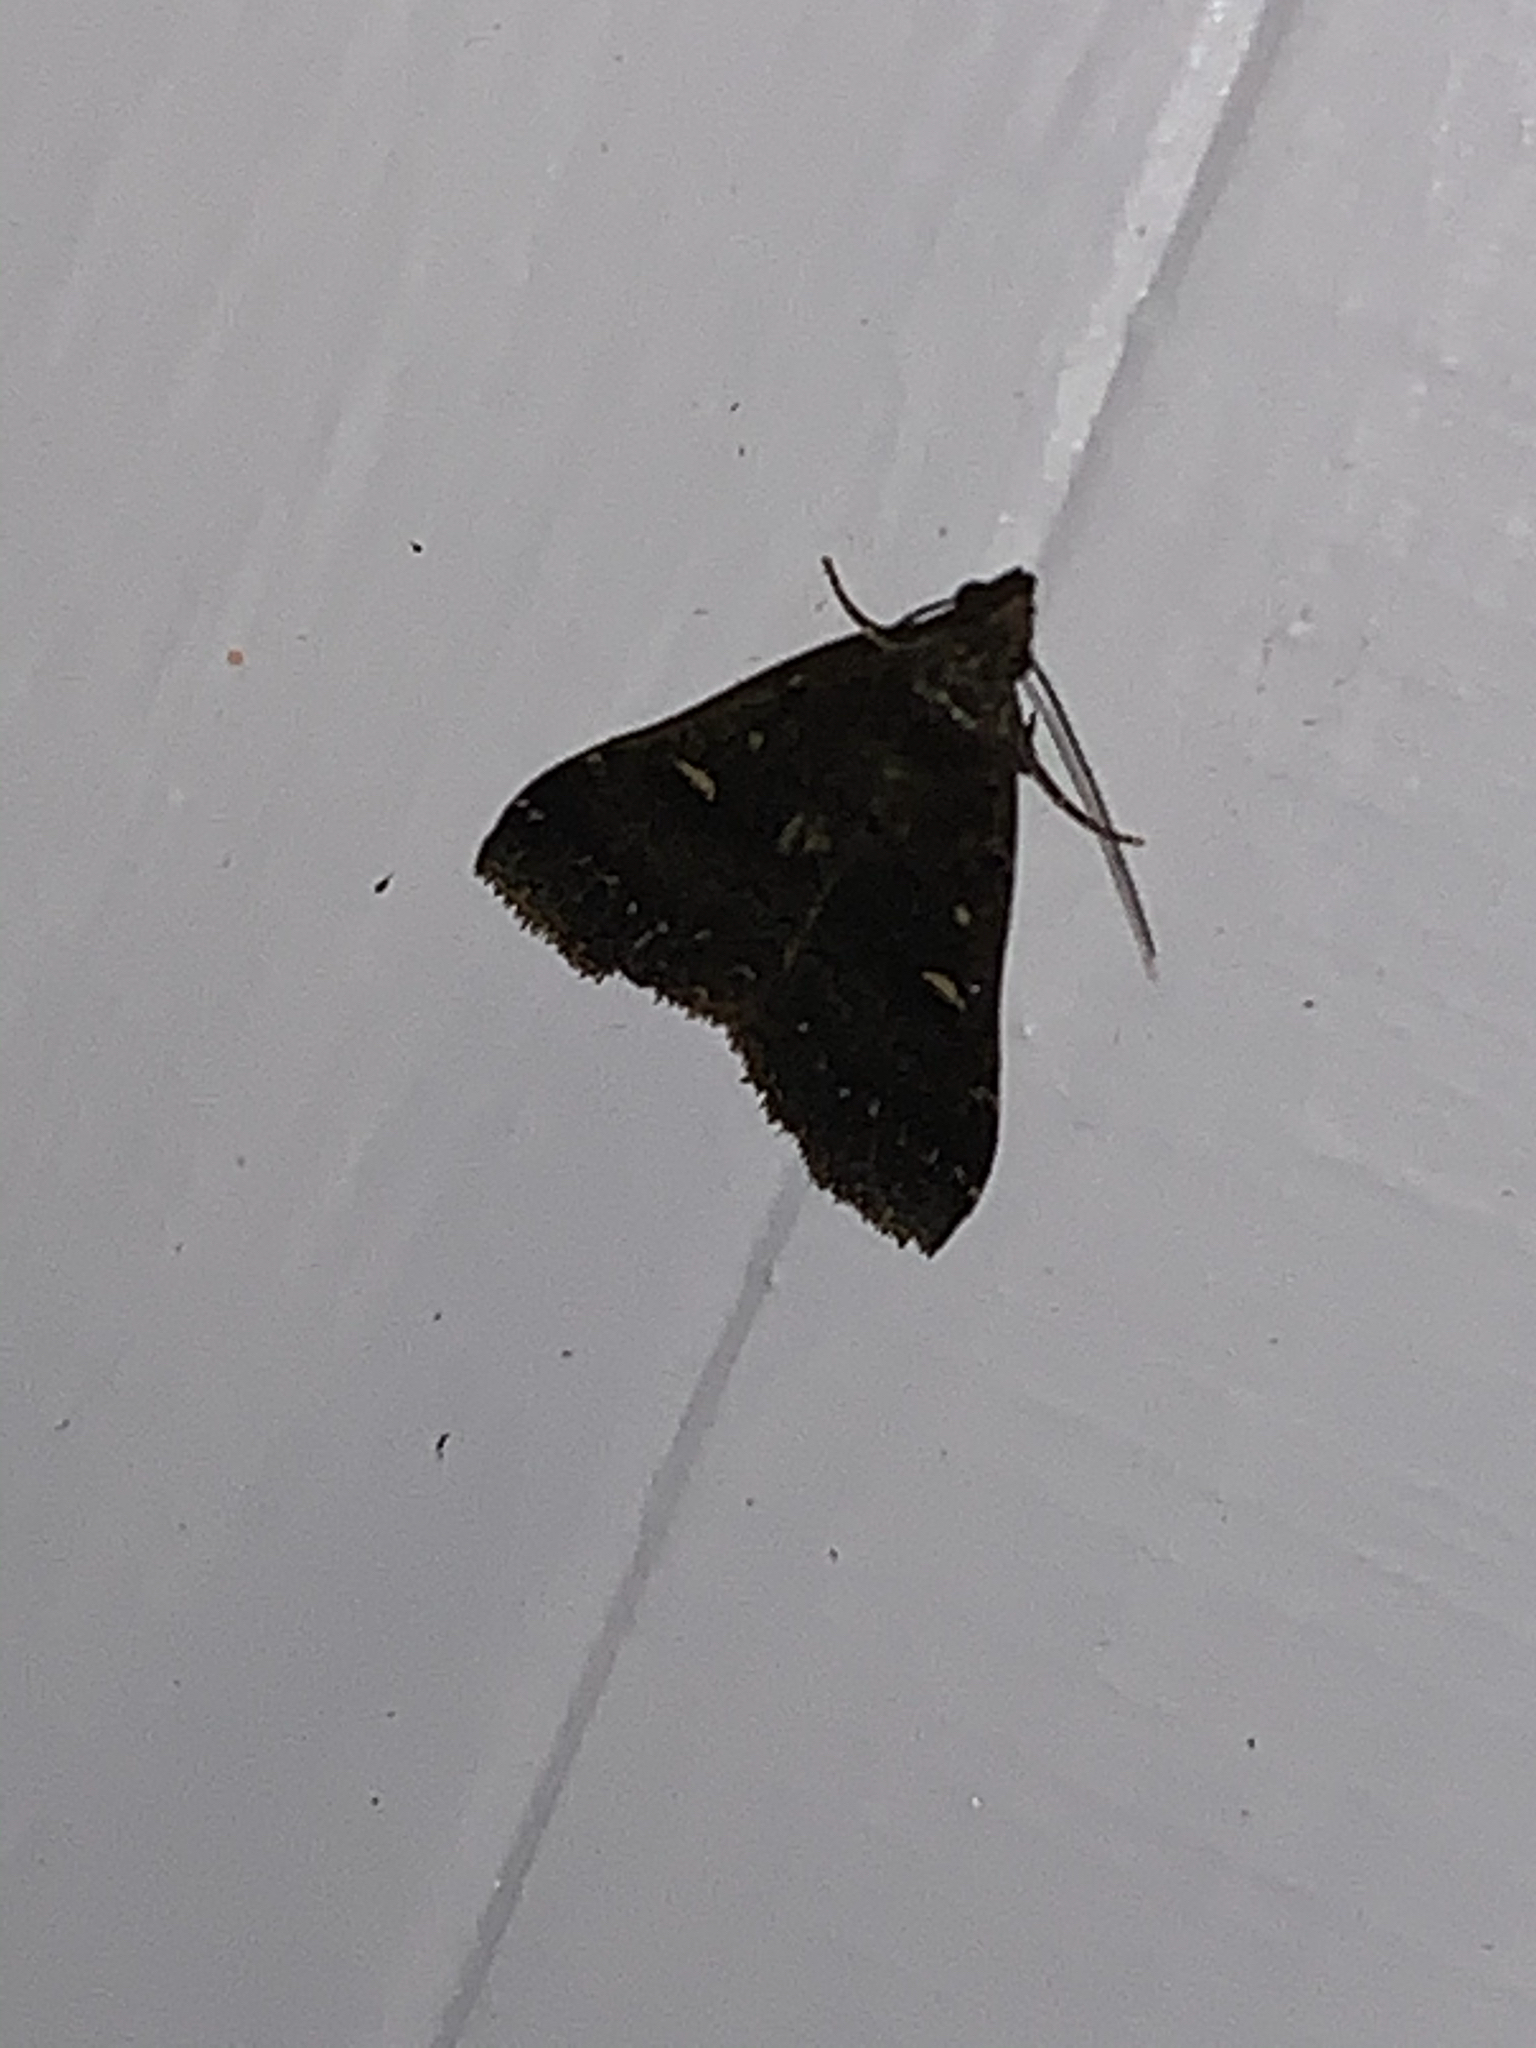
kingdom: Animalia
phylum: Arthropoda
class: Insecta
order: Lepidoptera
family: Erebidae
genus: Tetanolita
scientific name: Tetanolita mynesalis
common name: Smoky tetanolita moth
